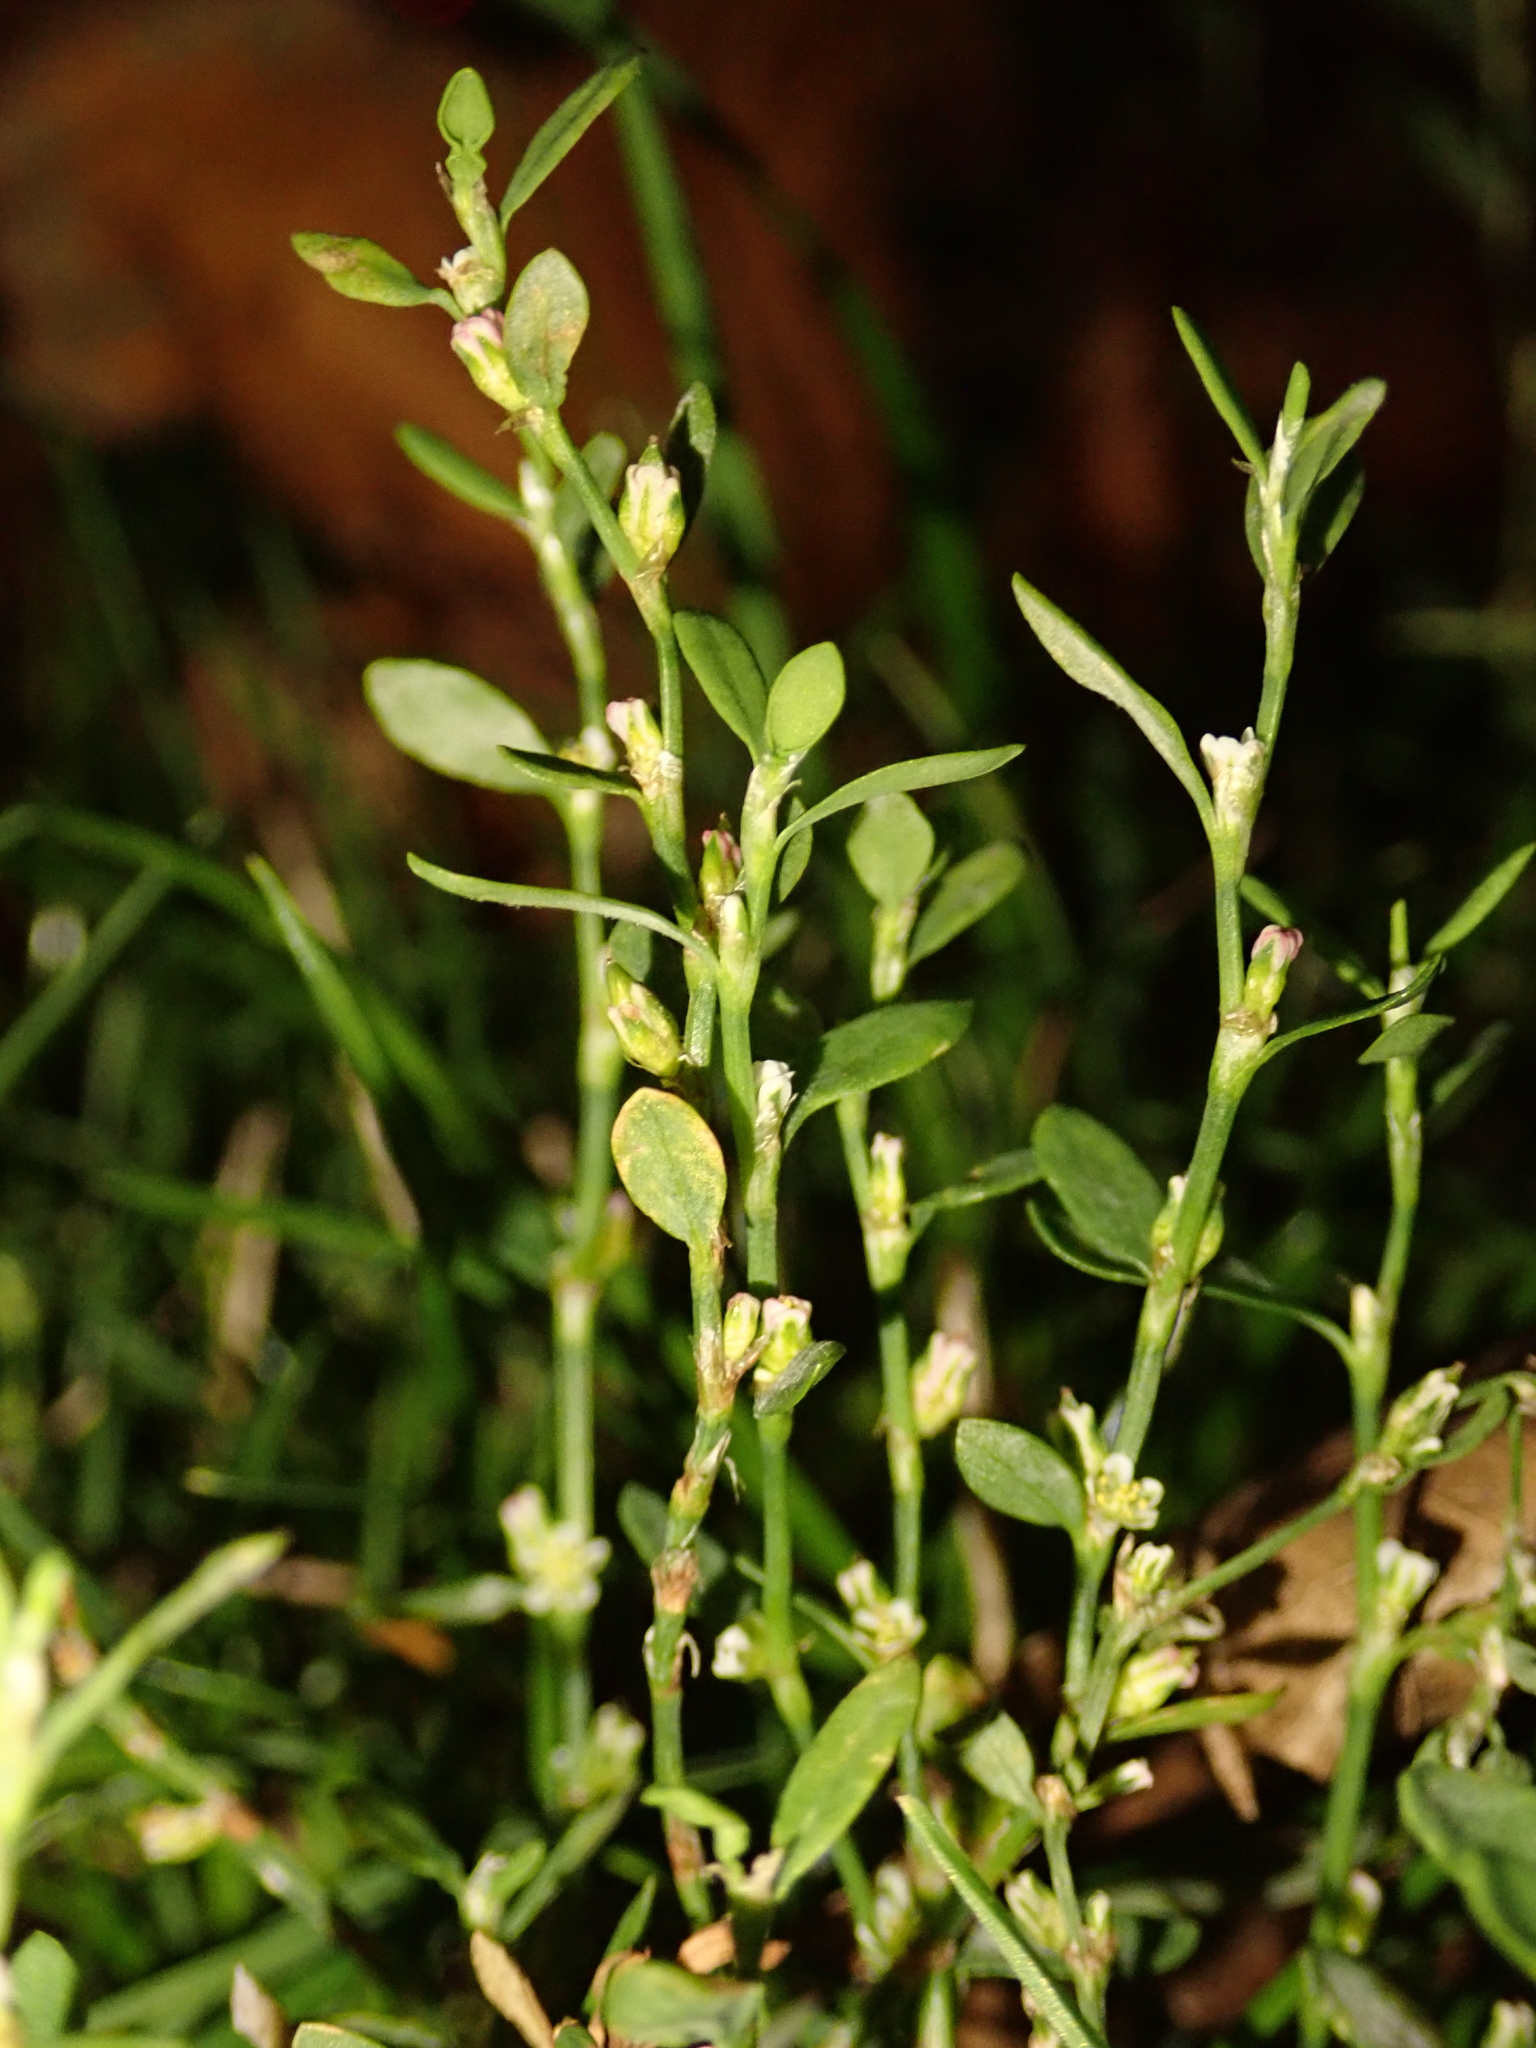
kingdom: Plantae
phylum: Tracheophyta
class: Magnoliopsida
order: Caryophyllales
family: Polygonaceae
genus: Polygonum
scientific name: Polygonum aviculare
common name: Prostrate knotweed
